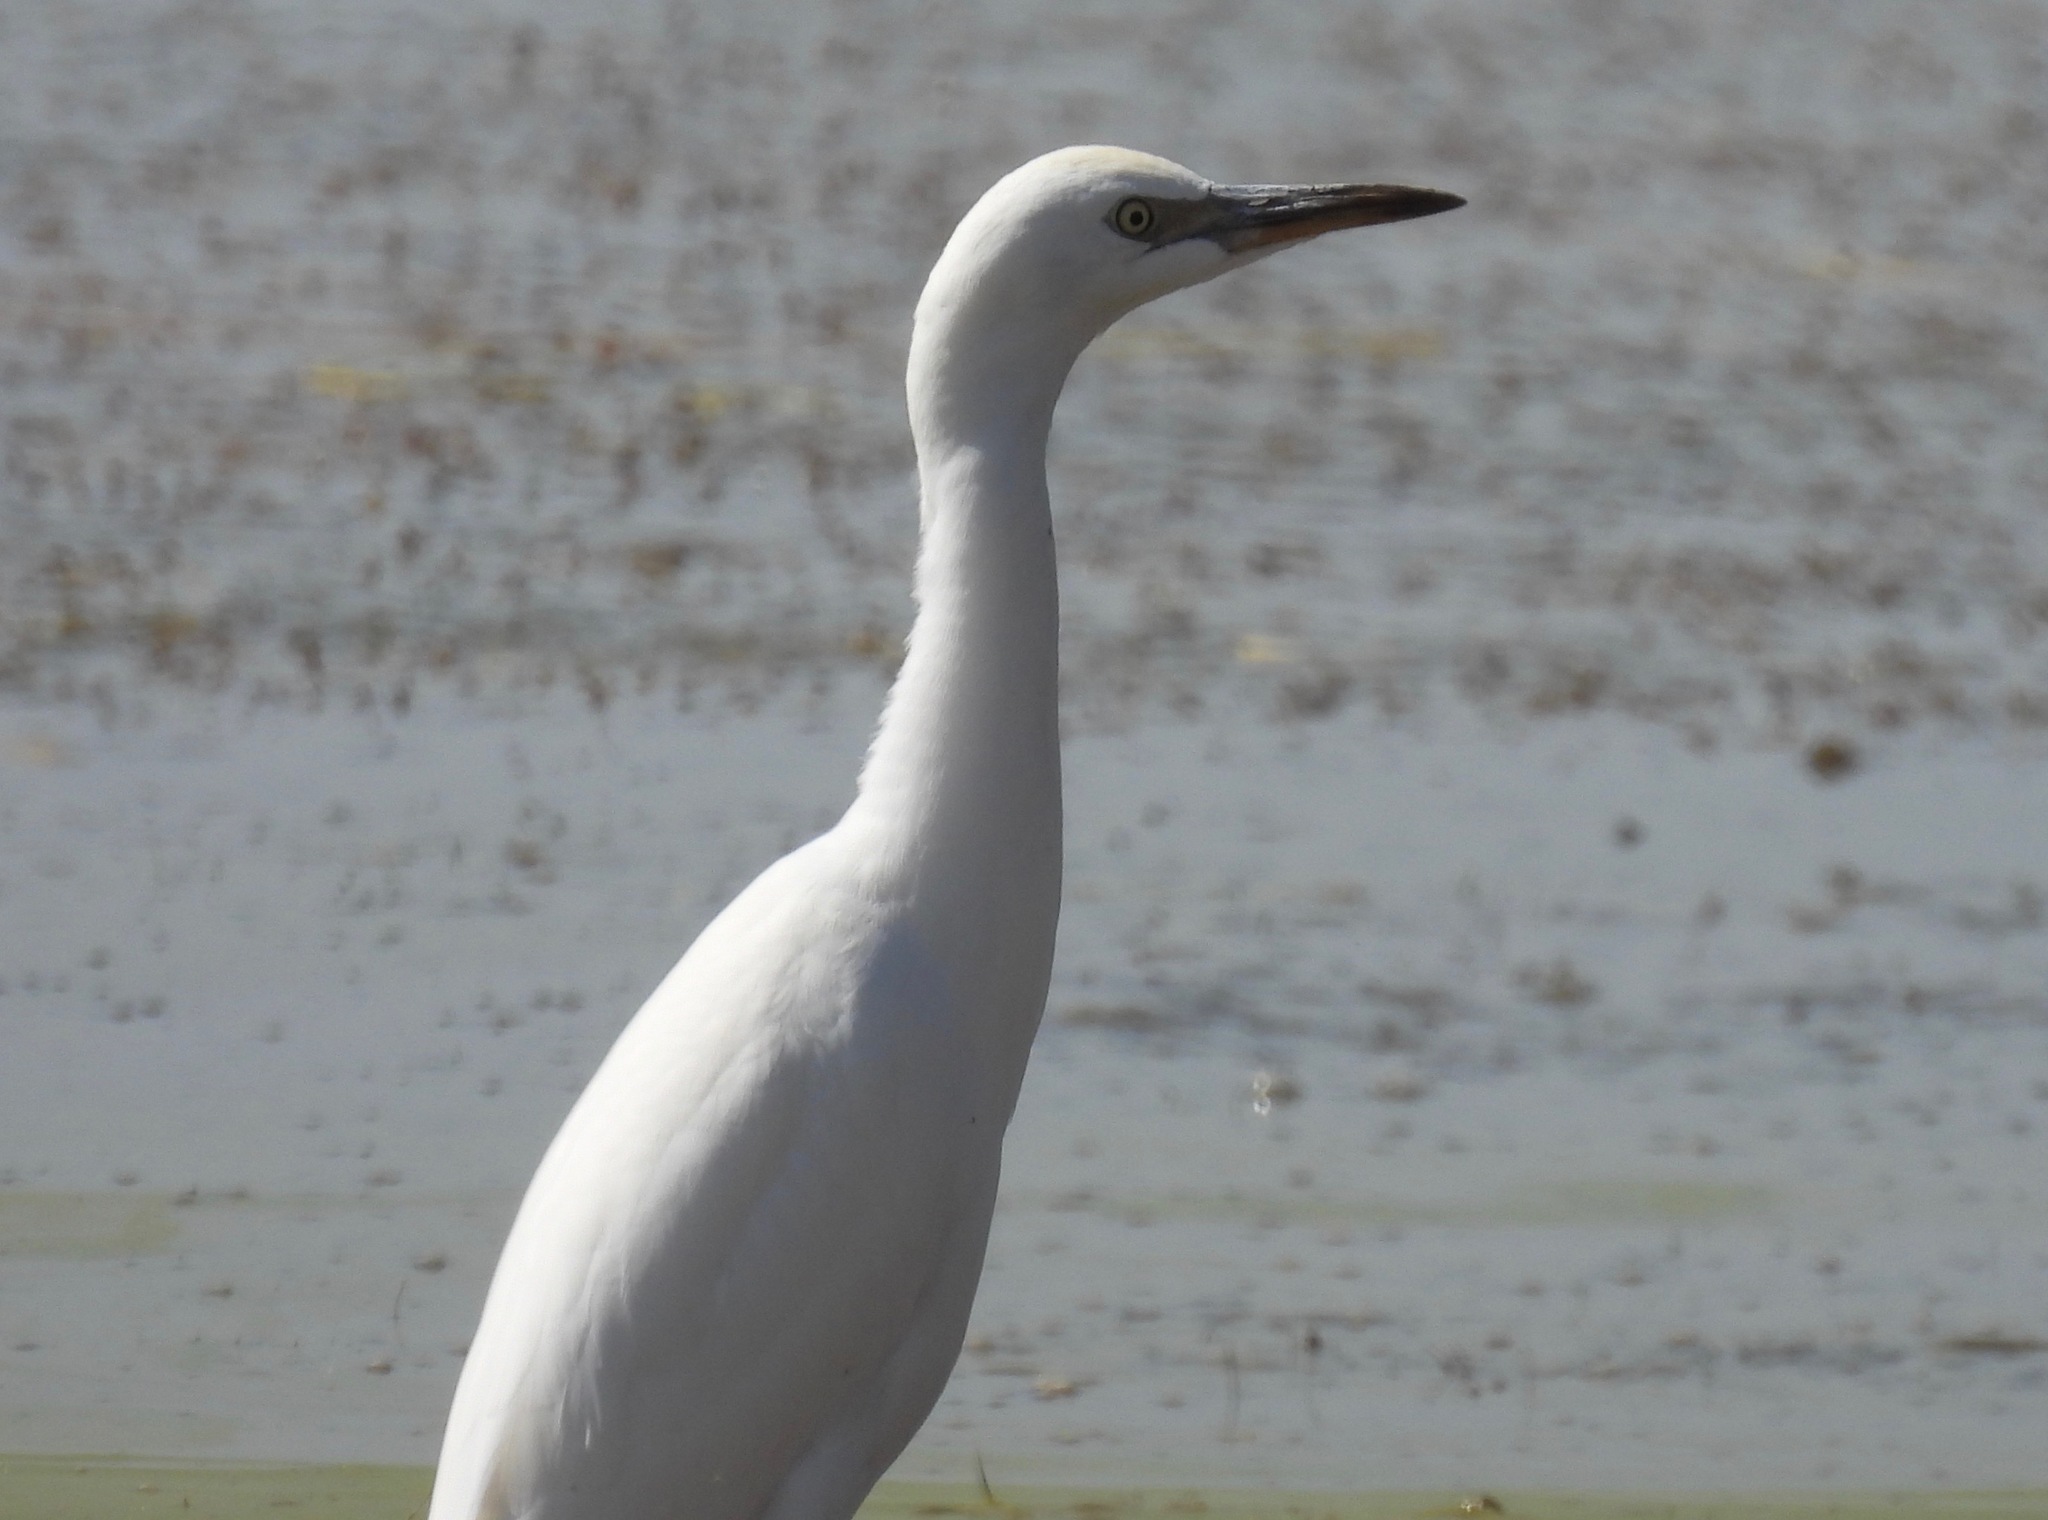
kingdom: Animalia
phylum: Chordata
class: Aves
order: Pelecaniformes
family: Ardeidae
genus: Bubulcus
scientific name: Bubulcus ibis
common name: Cattle egret
